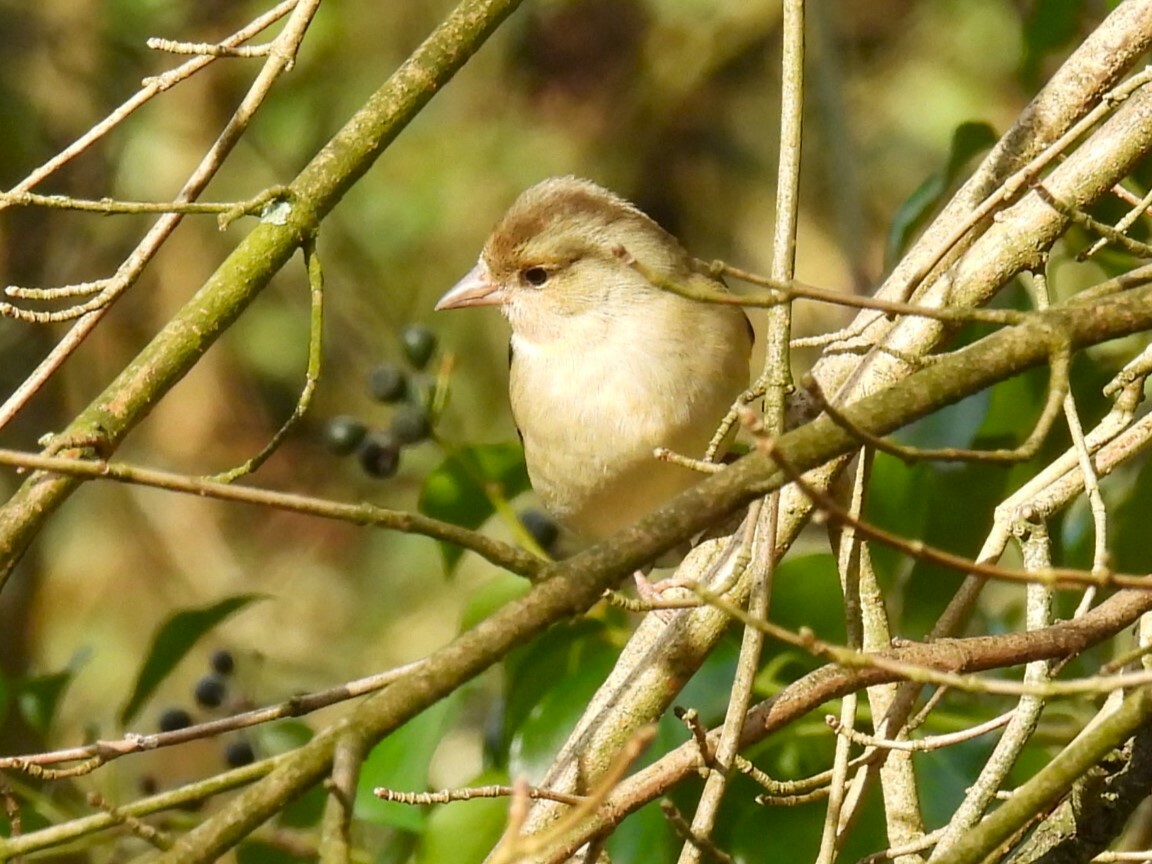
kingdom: Animalia
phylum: Chordata
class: Aves
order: Passeriformes
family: Fringillidae
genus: Fringilla
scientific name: Fringilla coelebs
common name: Common chaffinch
